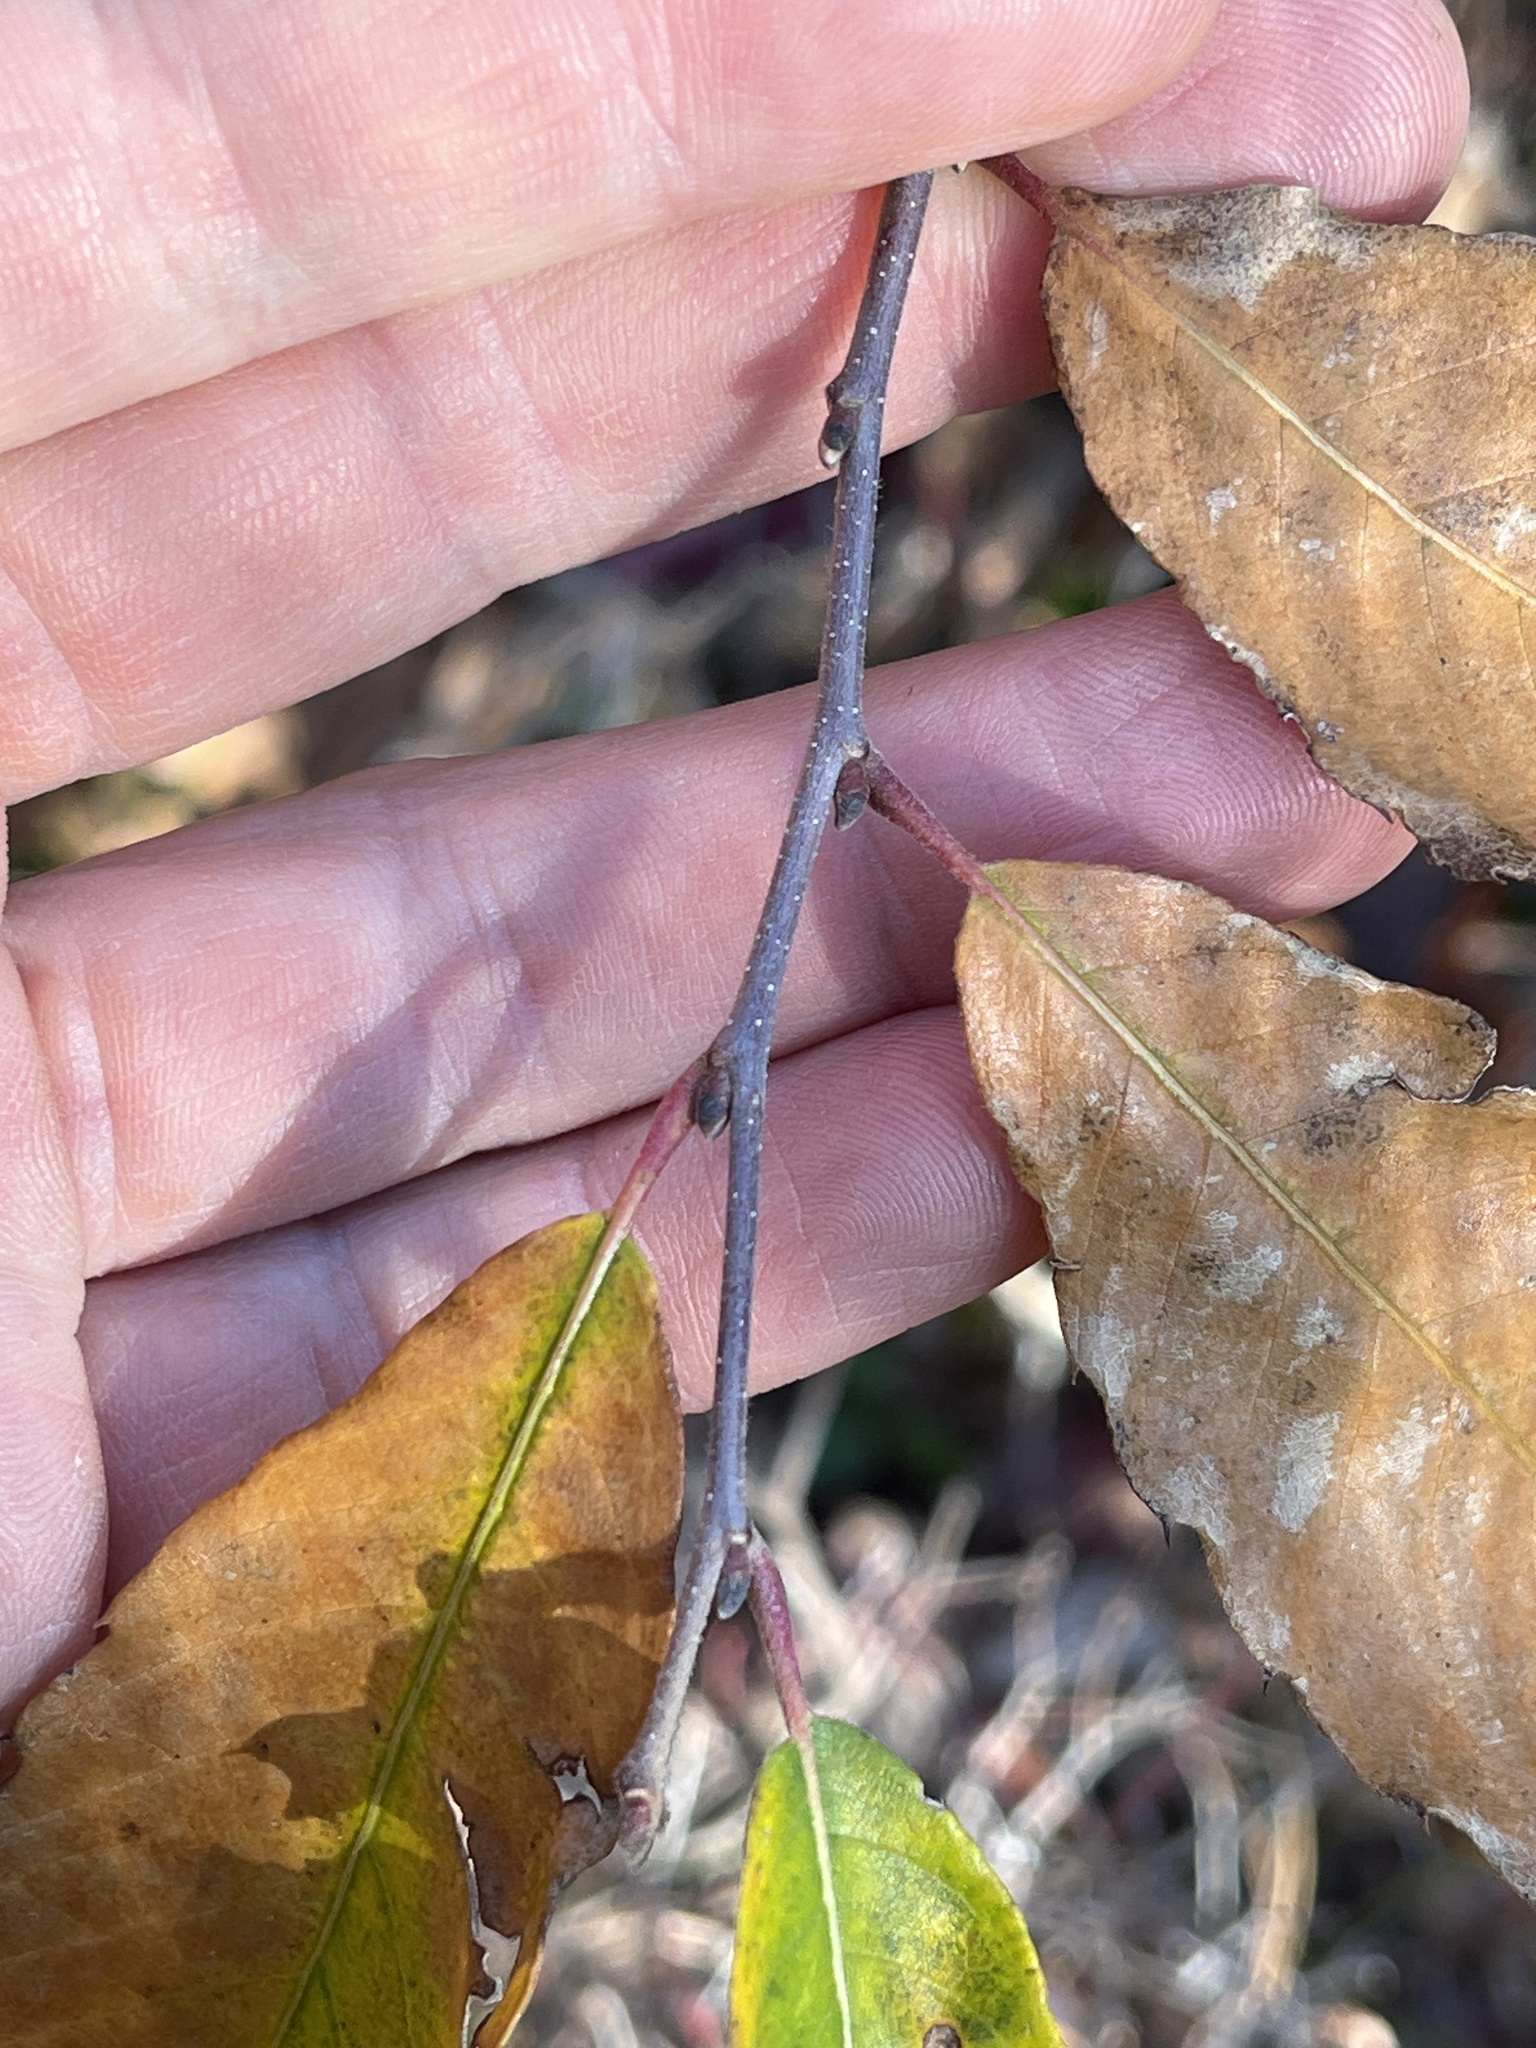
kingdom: Plantae
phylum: Tracheophyta
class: Magnoliopsida
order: Fagales
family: Fagaceae
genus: Castanea
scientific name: Castanea pumila
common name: Chinkapin
